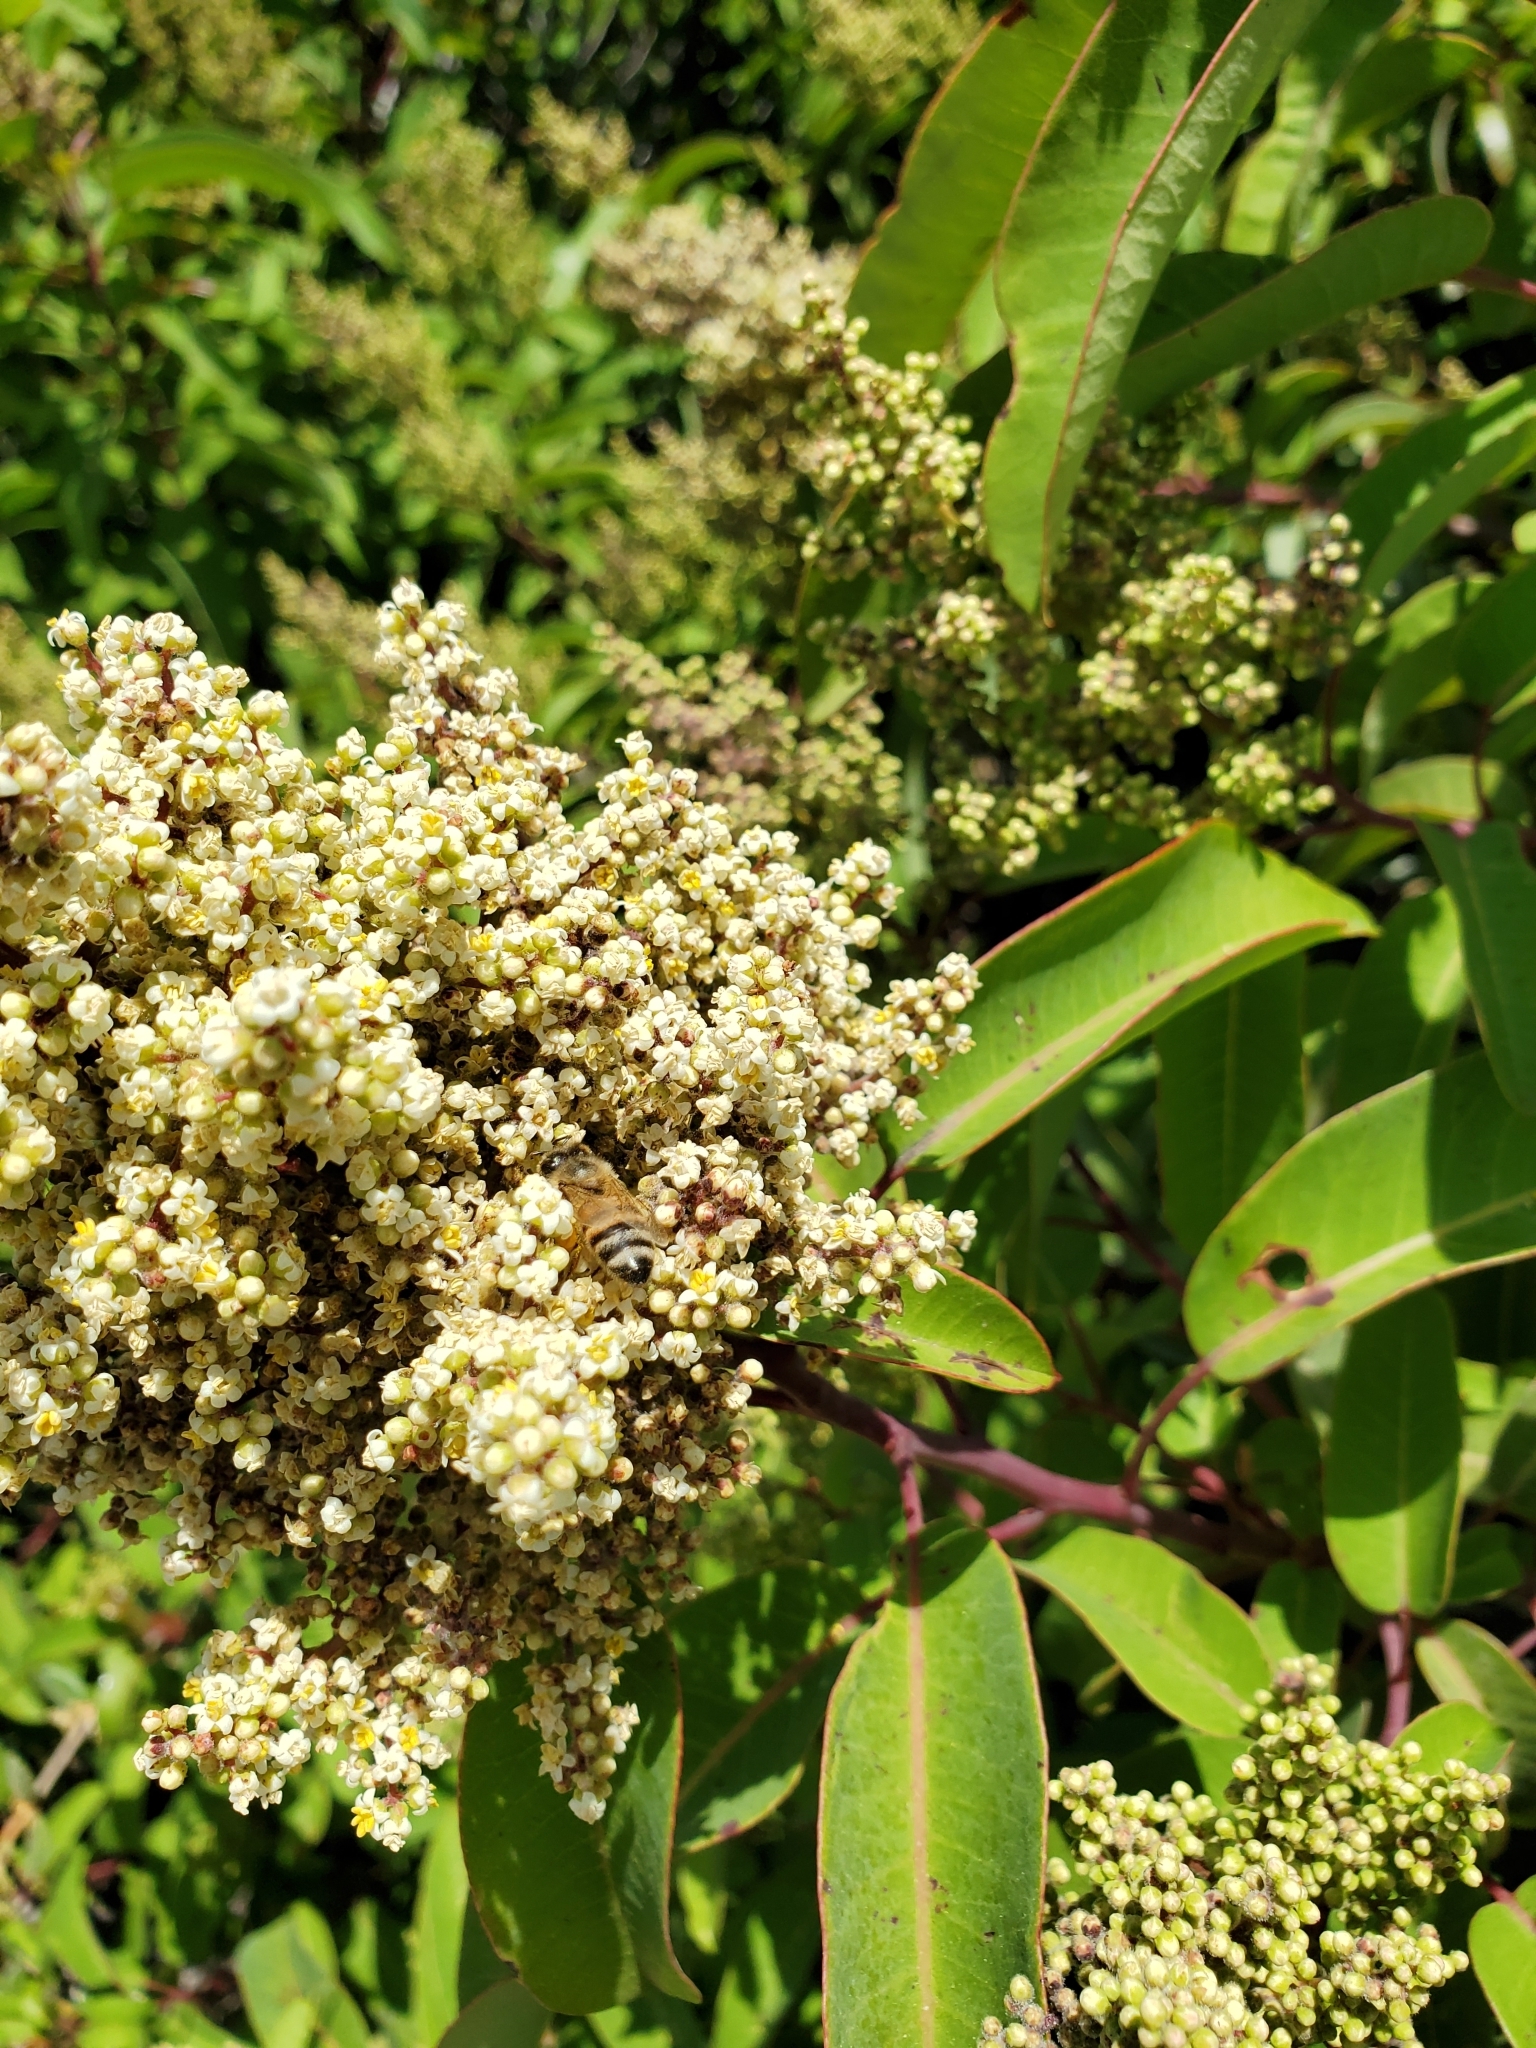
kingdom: Plantae
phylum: Tracheophyta
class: Magnoliopsida
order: Sapindales
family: Anacardiaceae
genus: Malosma
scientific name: Malosma laurina
